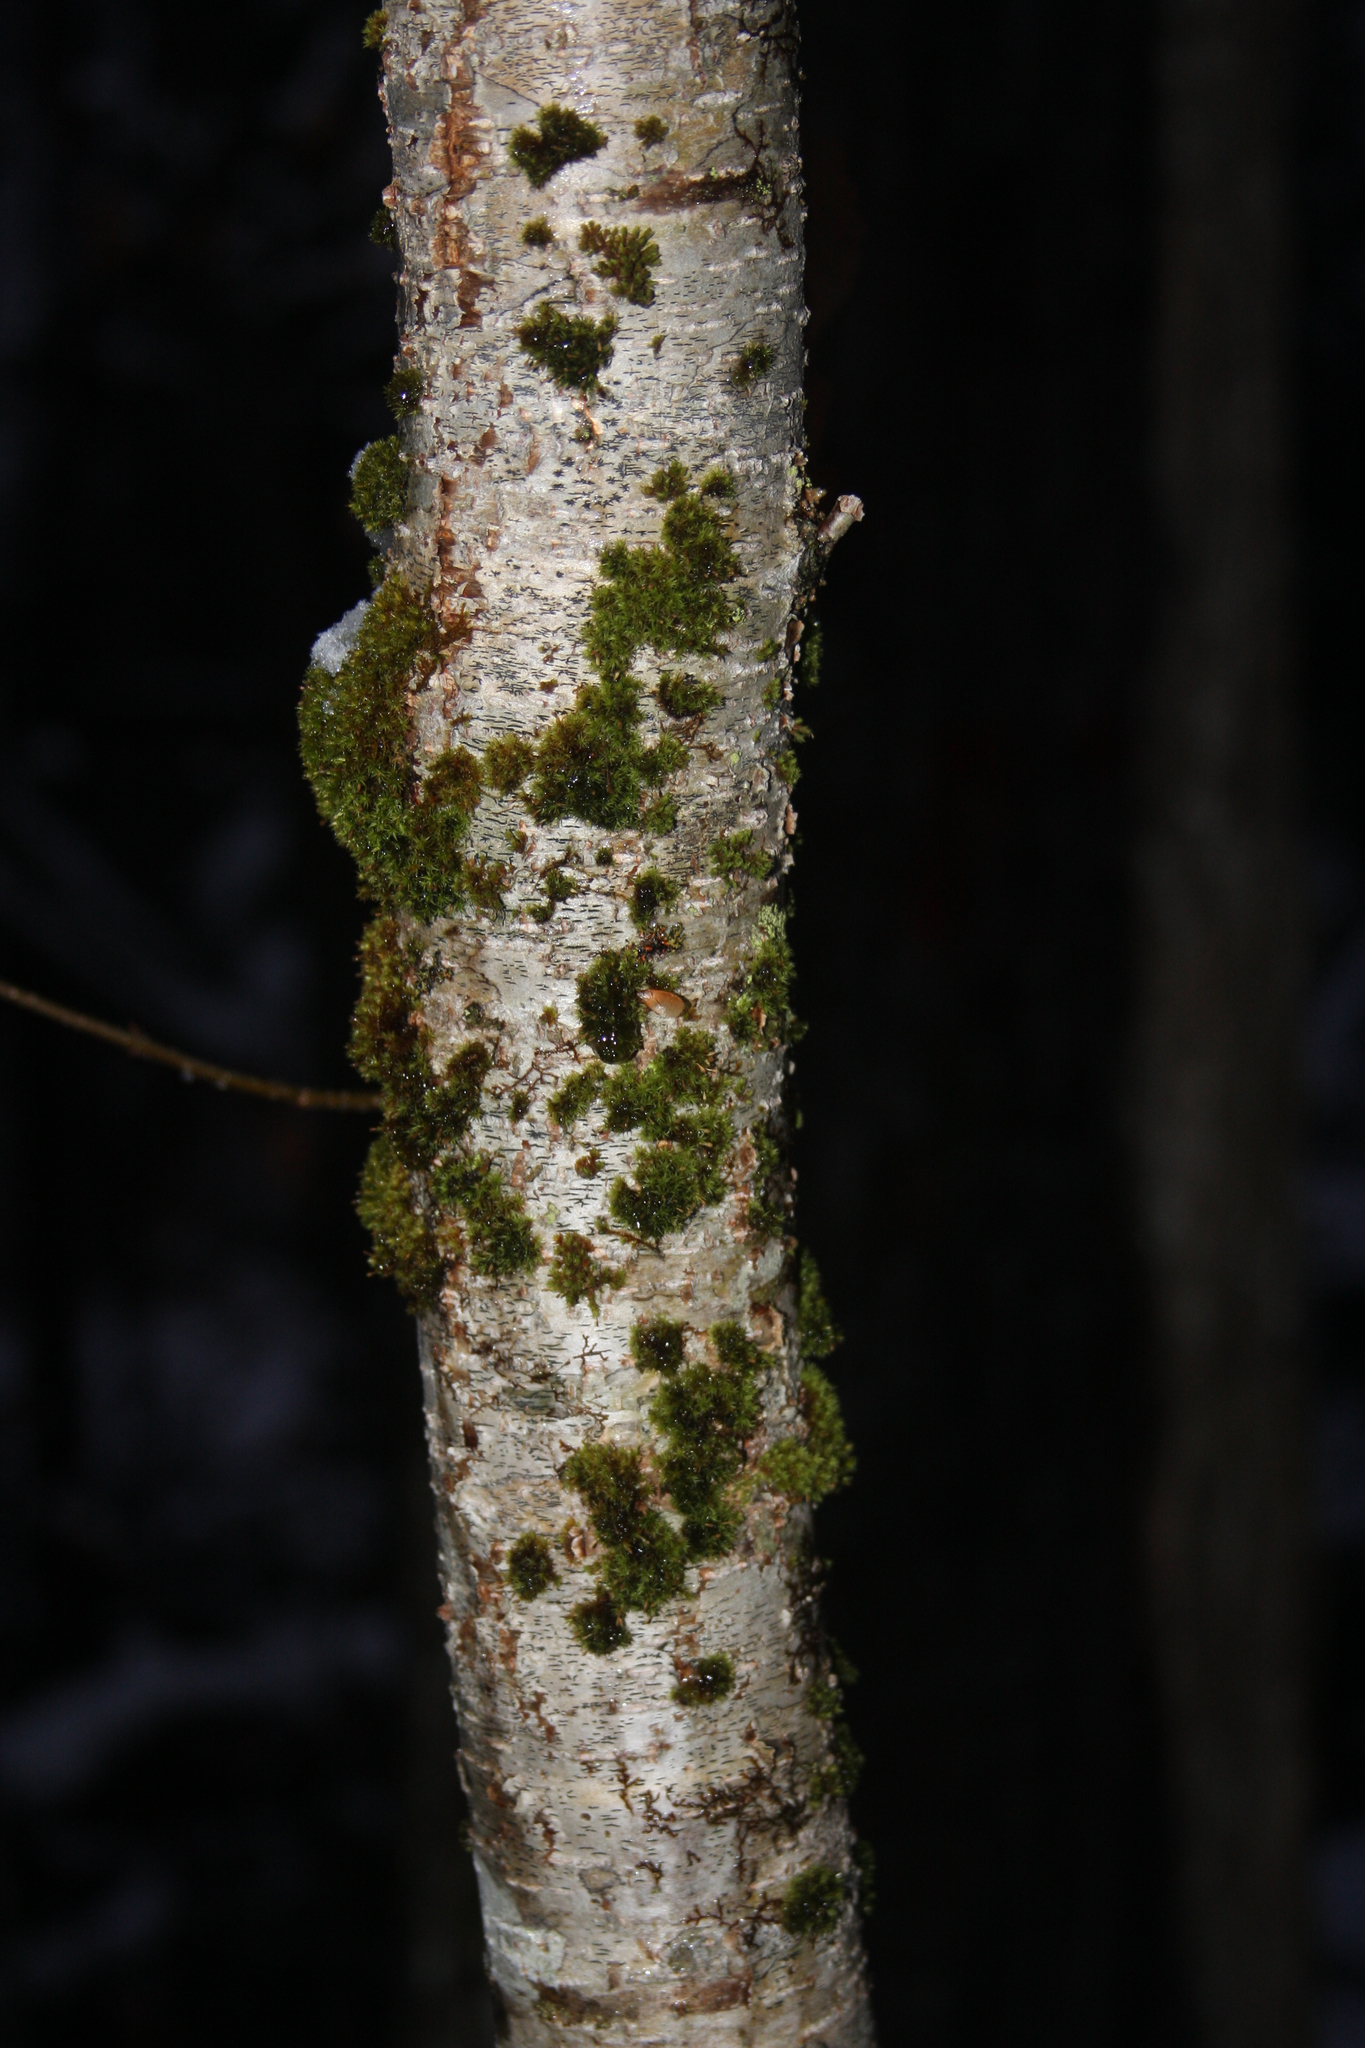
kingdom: Plantae
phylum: Bryophyta
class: Bryopsida
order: Orthotrichales
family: Orthotrichaceae
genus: Ulota
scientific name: Ulota crispa
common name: Crisped pincushion moss
